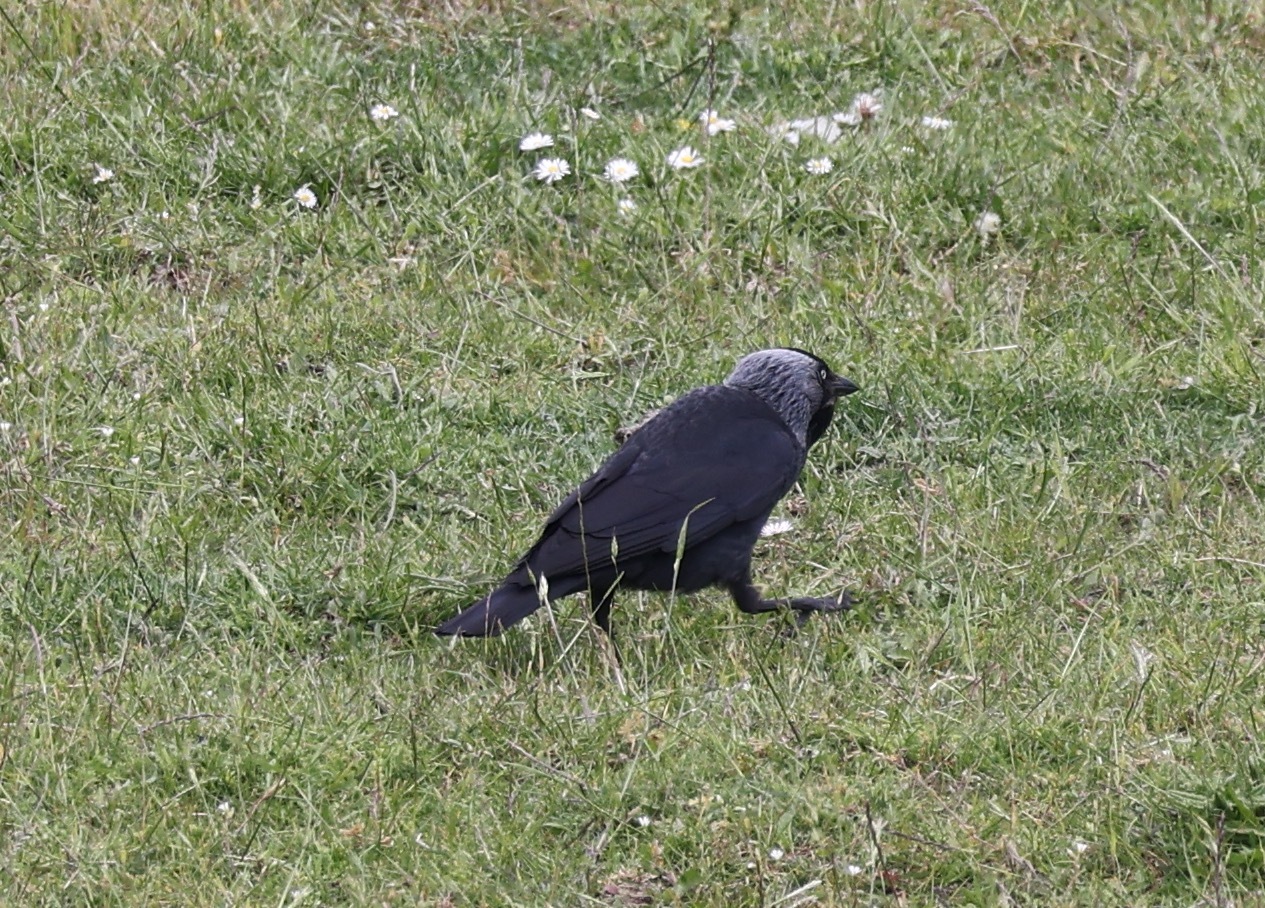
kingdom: Animalia
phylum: Chordata
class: Aves
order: Passeriformes
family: Corvidae
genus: Coloeus
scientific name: Coloeus monedula
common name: Western jackdaw
